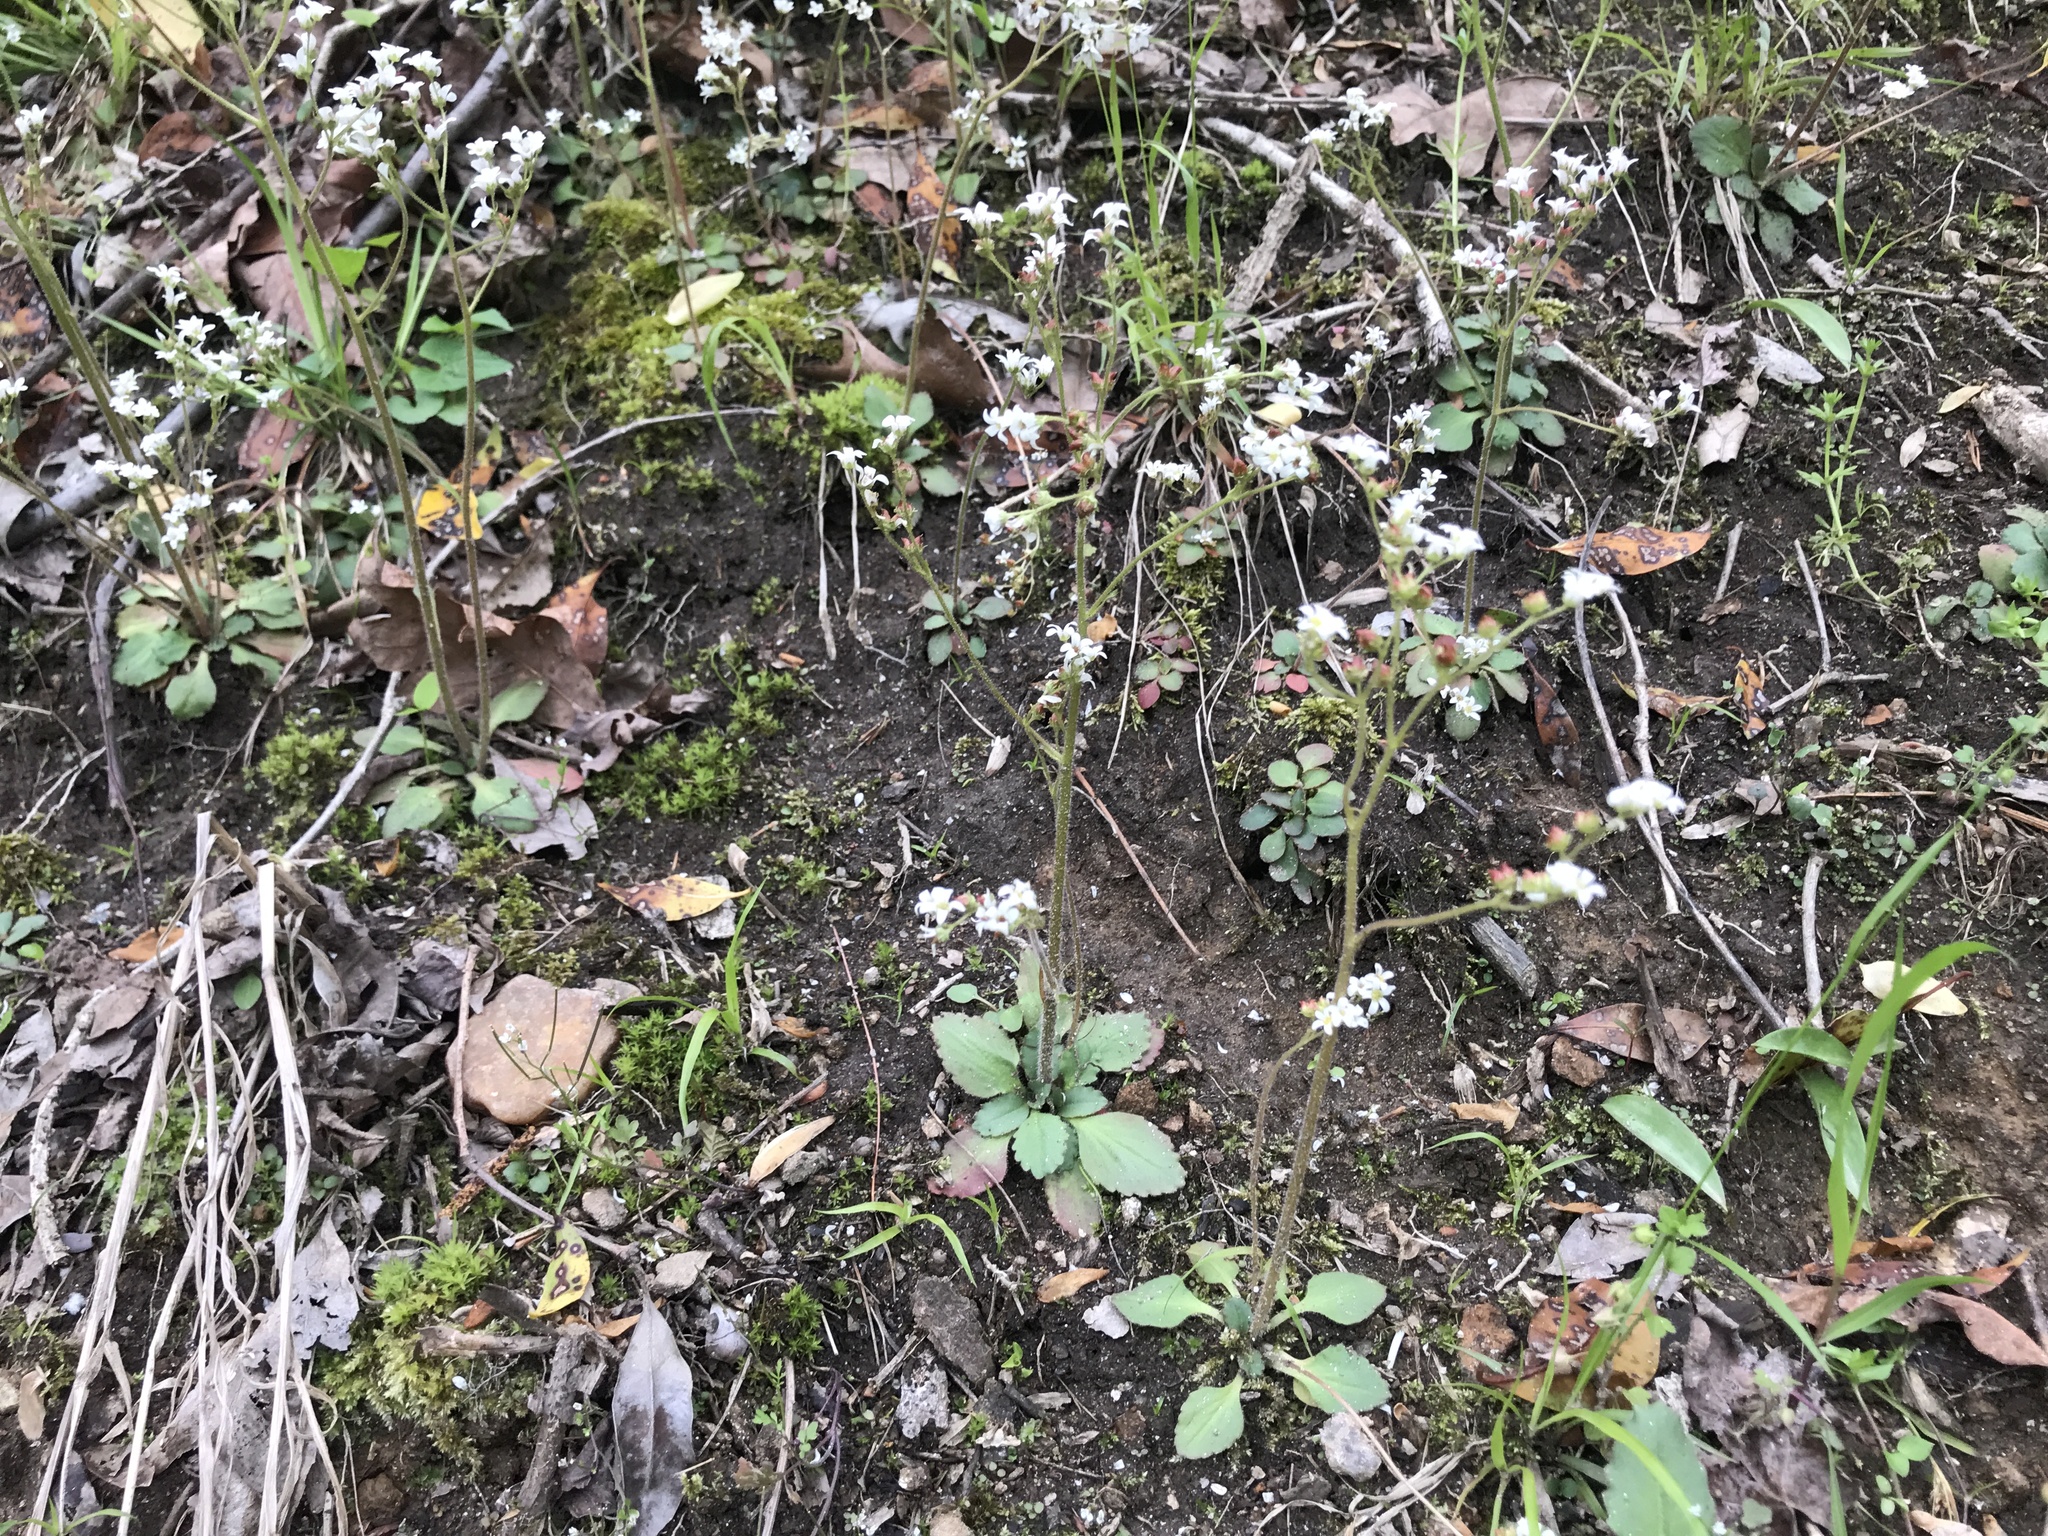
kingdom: Plantae
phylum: Tracheophyta
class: Magnoliopsida
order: Saxifragales
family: Saxifragaceae
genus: Micranthes
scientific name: Micranthes virginiensis
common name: Early saxifrage
